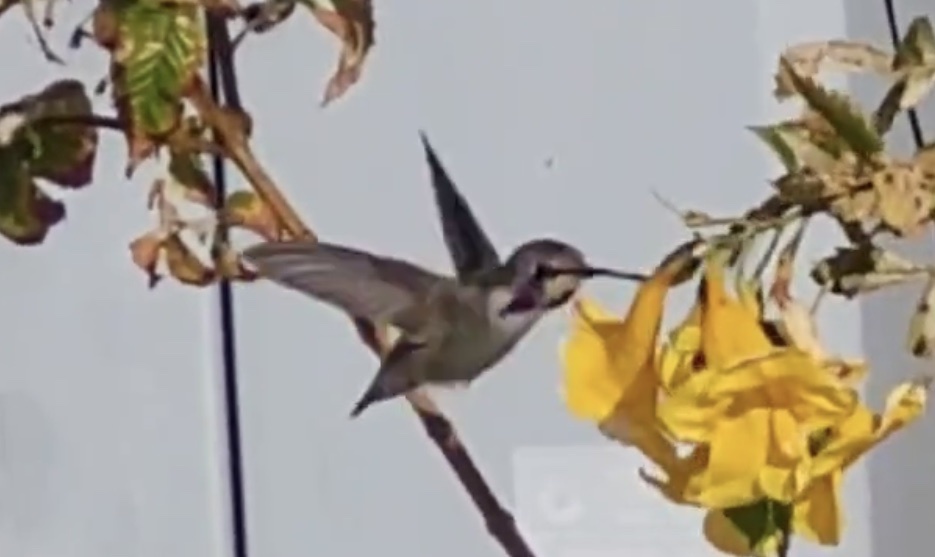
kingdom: Animalia
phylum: Chordata
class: Aves
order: Apodiformes
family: Trochilidae
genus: Calypte
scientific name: Calypte costae
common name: Costa's hummingbird
